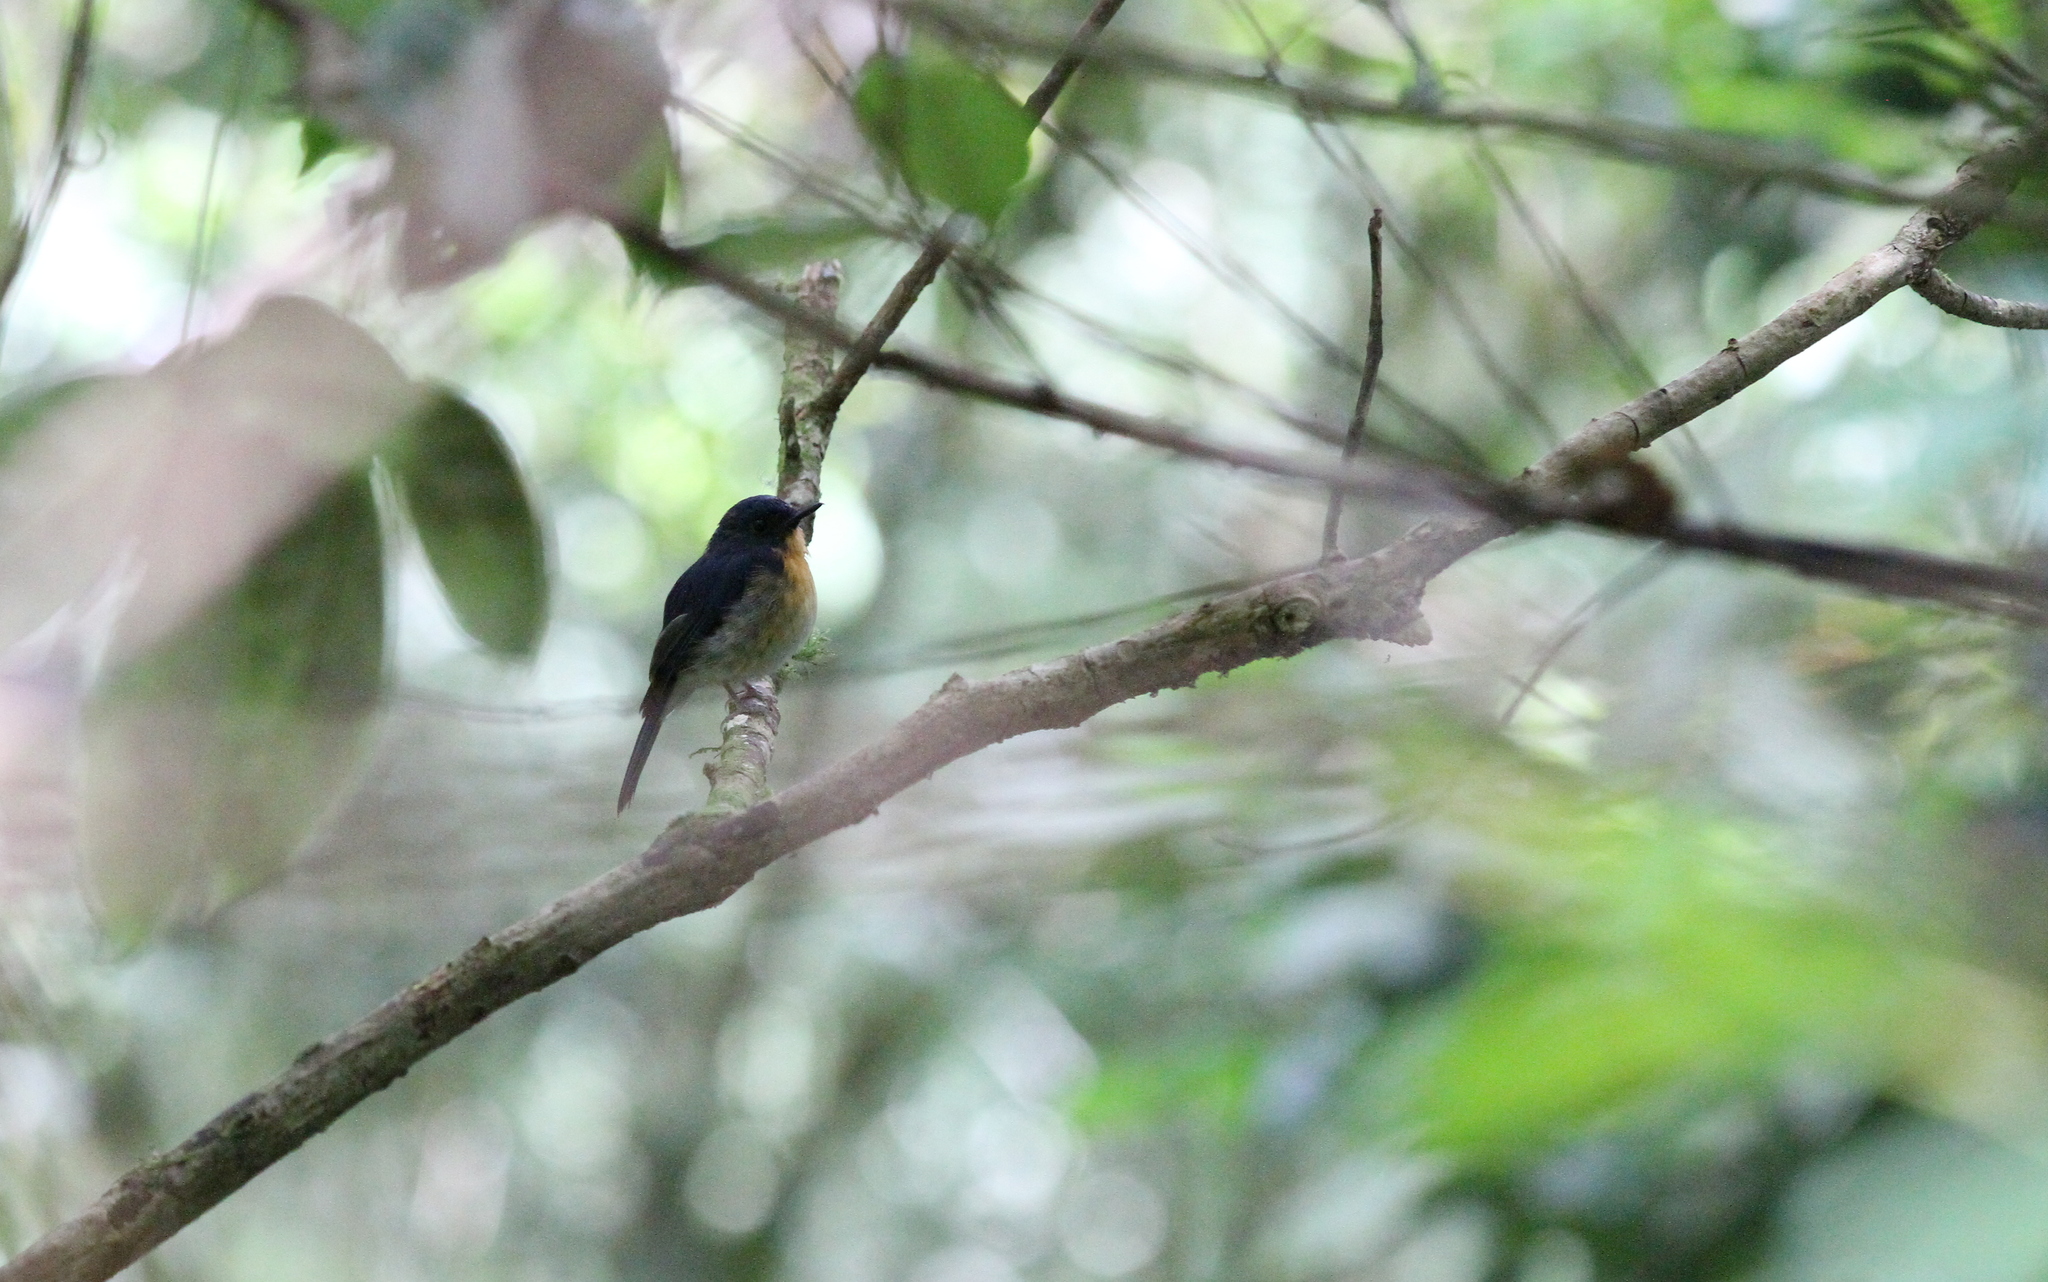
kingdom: Animalia
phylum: Chordata
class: Aves
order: Passeriformes
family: Muscicapidae
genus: Cyornis
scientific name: Cyornis whitei
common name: Hill blue flycatcher
